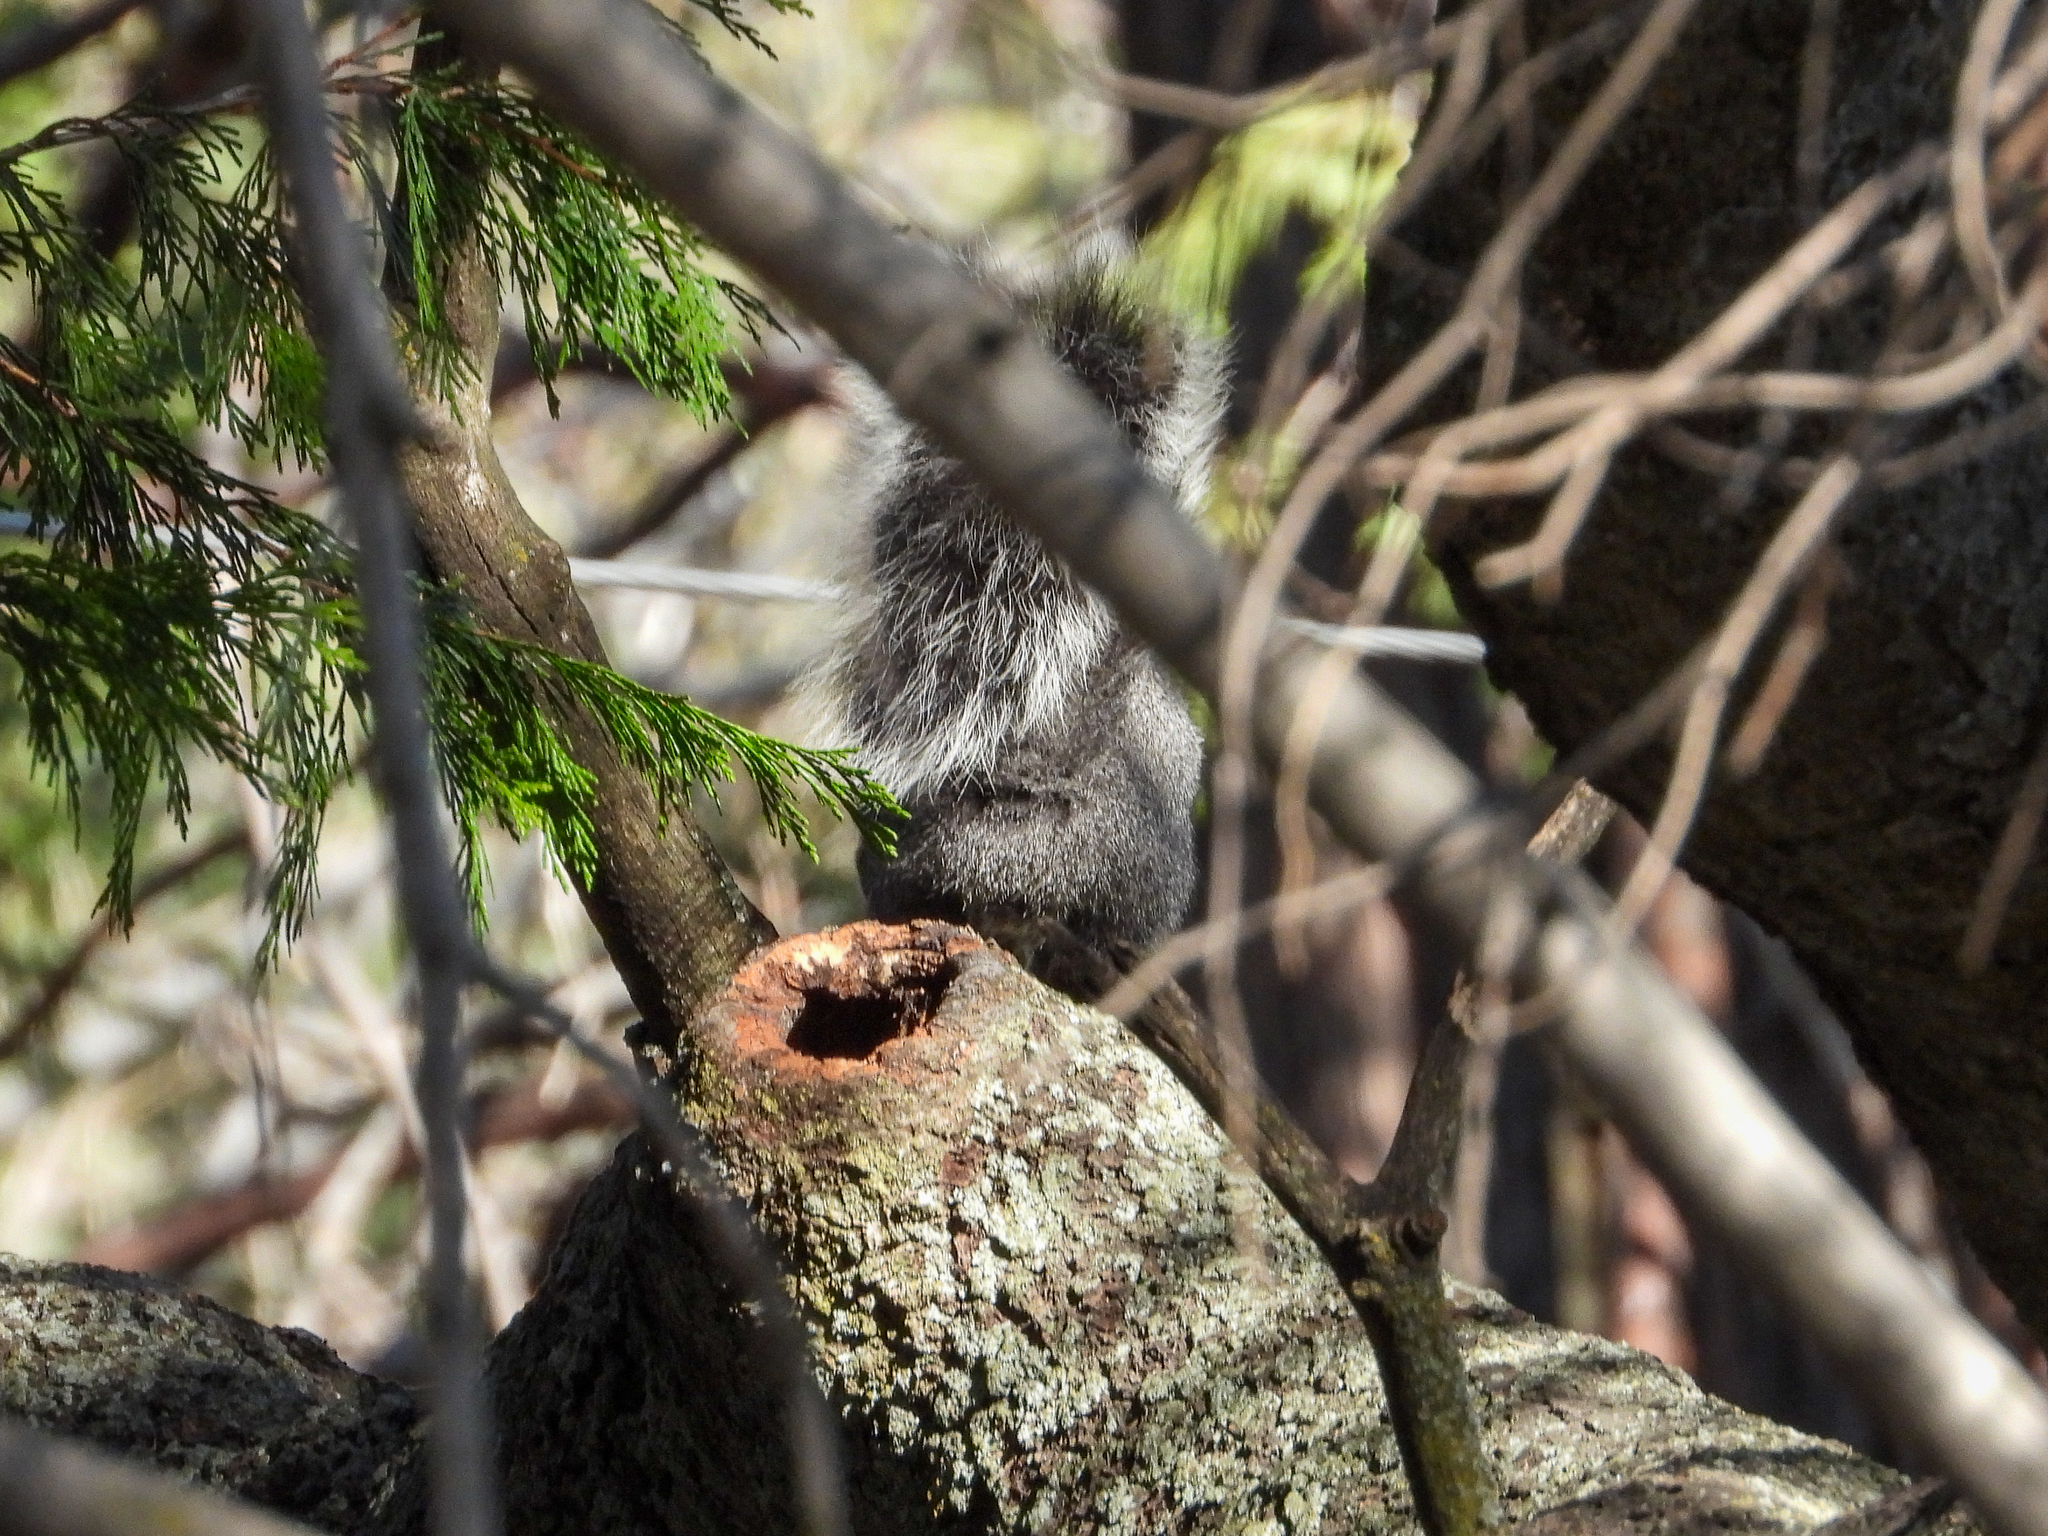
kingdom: Animalia
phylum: Chordata
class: Mammalia
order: Rodentia
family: Sciuridae
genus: Sciurus
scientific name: Sciurus griseus
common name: Western gray squirrel
